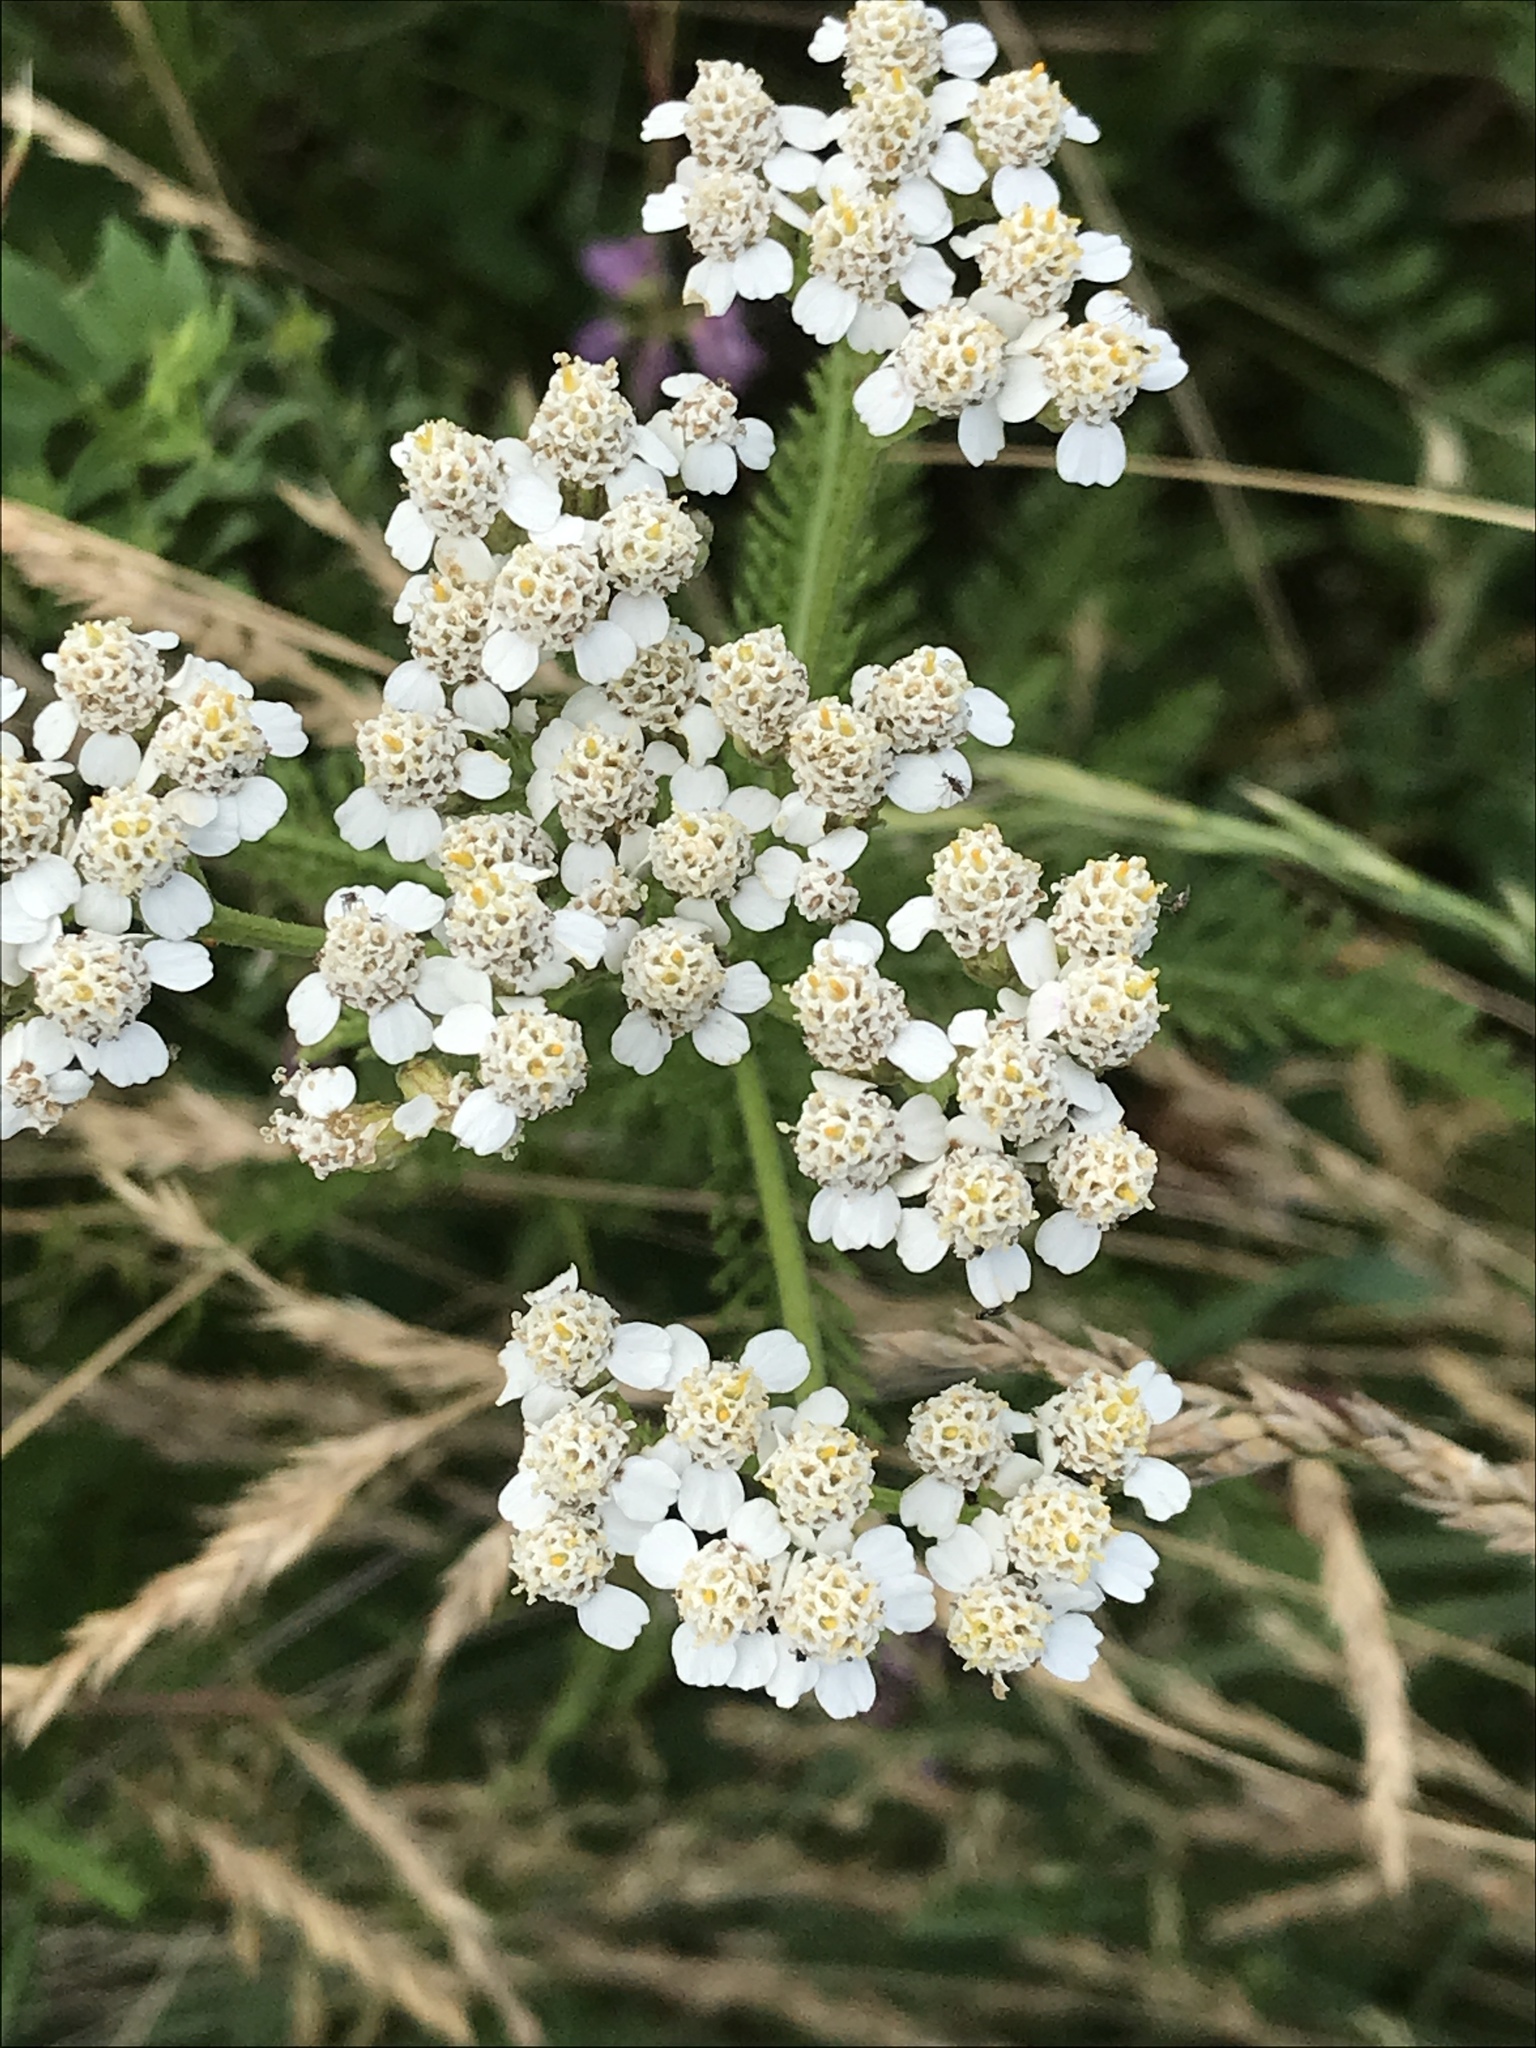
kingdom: Plantae
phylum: Tracheophyta
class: Magnoliopsida
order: Asterales
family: Asteraceae
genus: Achillea
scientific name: Achillea millefolium
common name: Yarrow
